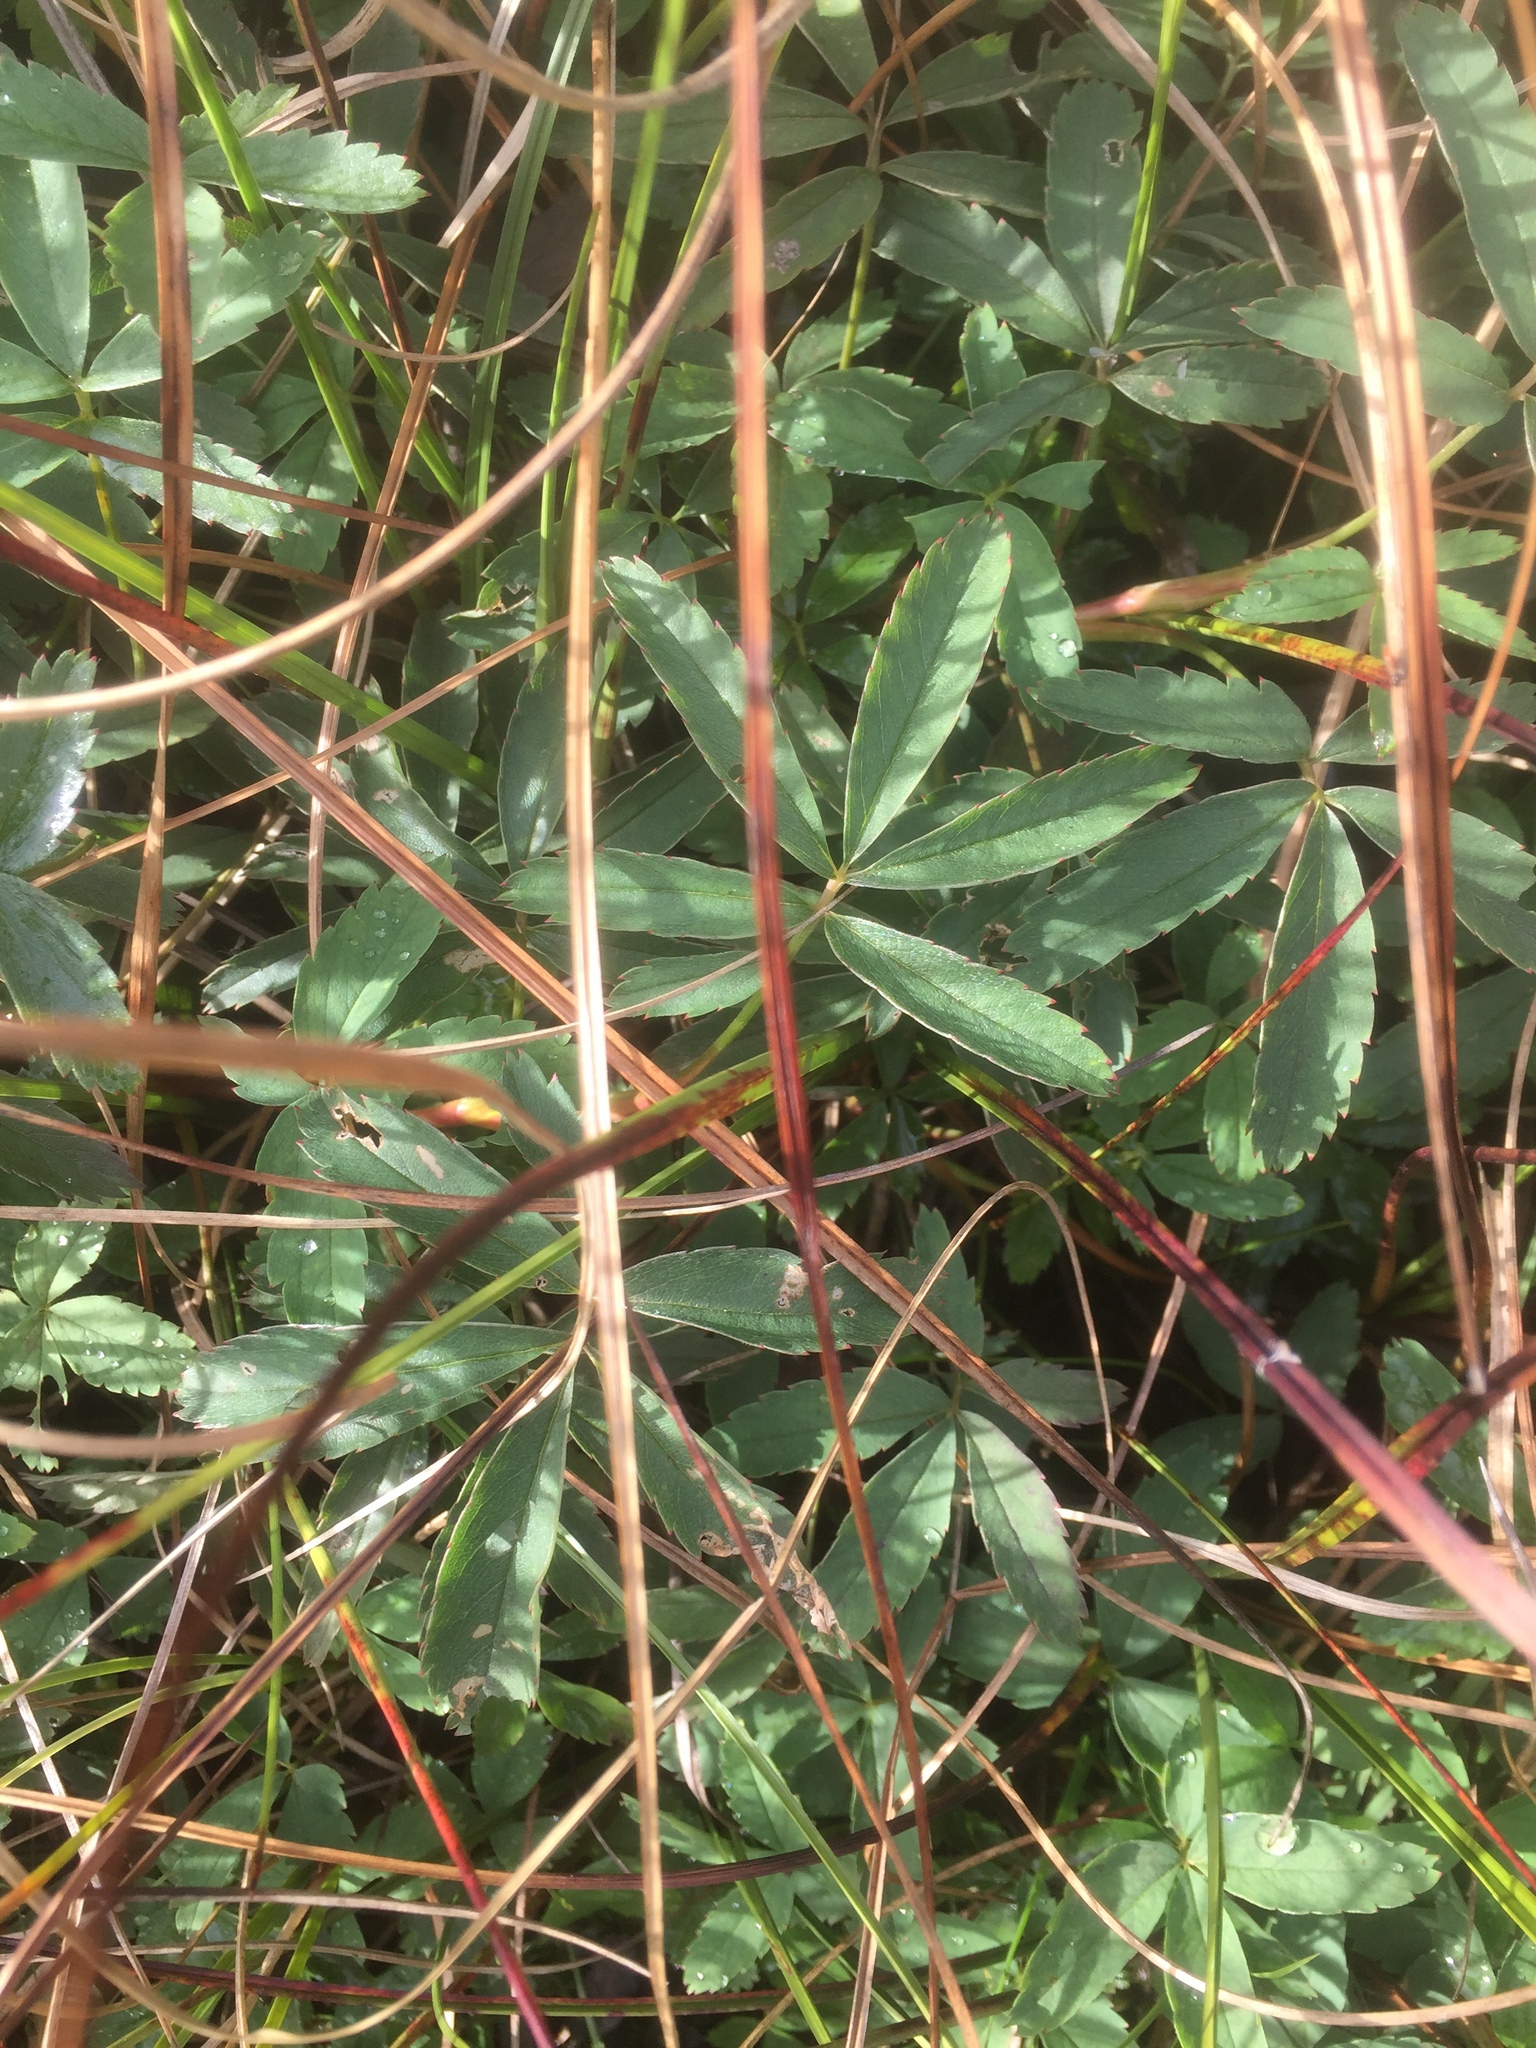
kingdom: Plantae
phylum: Tracheophyta
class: Magnoliopsida
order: Rosales
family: Rosaceae
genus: Comarum
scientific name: Comarum palustre
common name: Marsh cinquefoil
